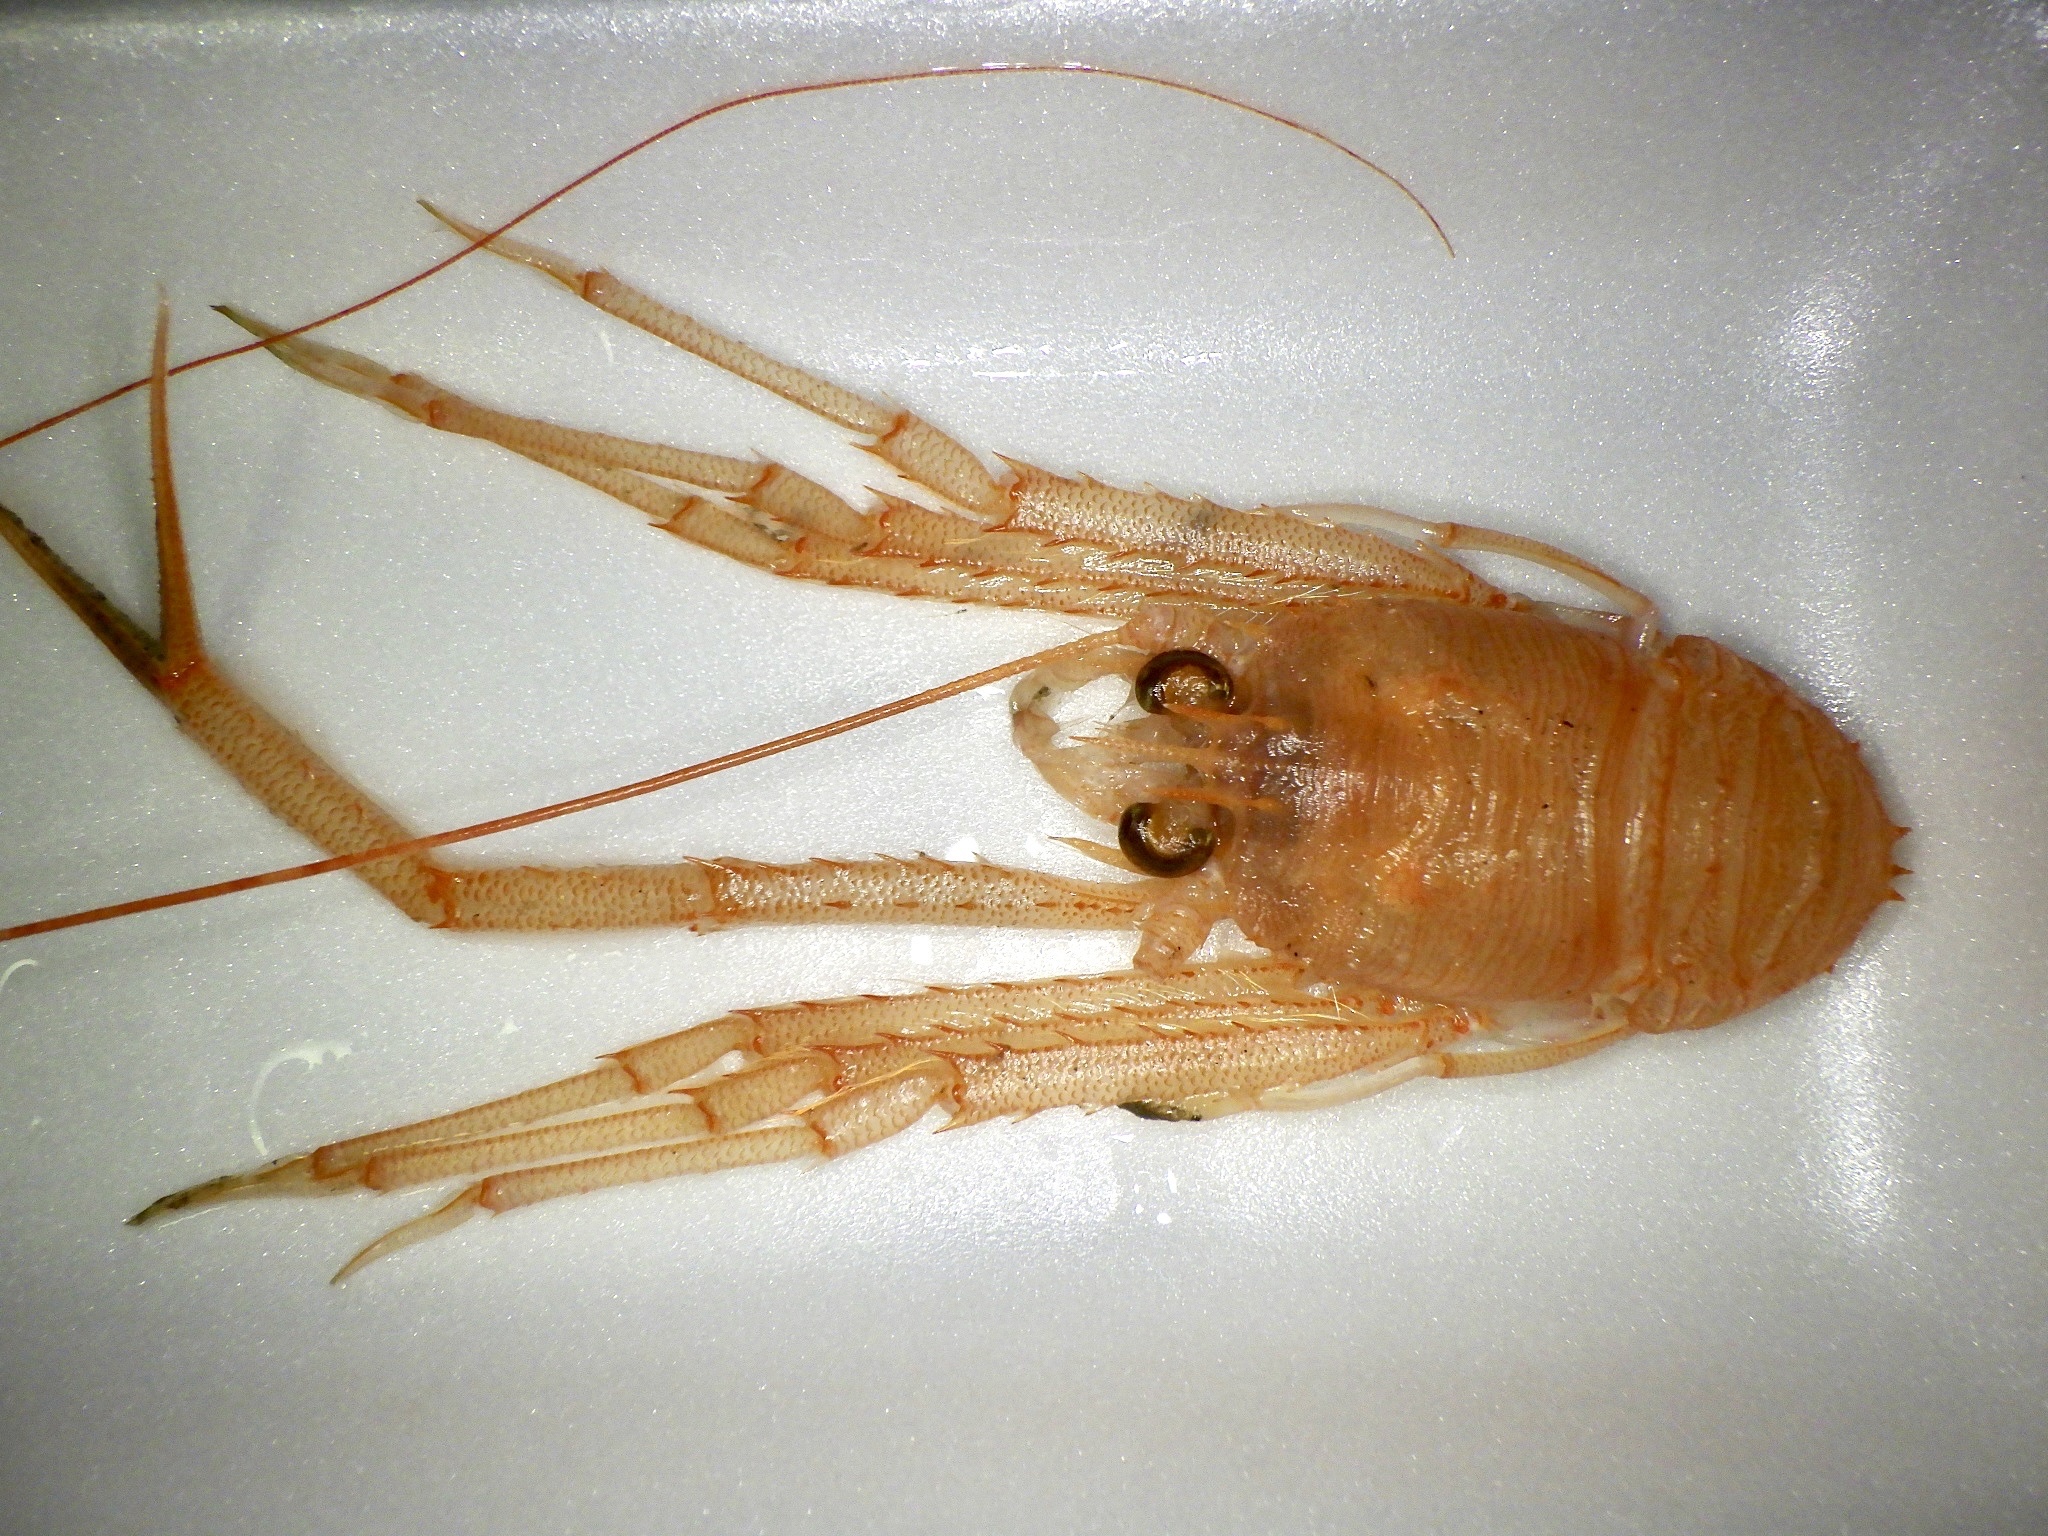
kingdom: Animalia
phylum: Arthropoda
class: Malacostraca
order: Decapoda
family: Munididae
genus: Agononida
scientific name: Agononida incerta
